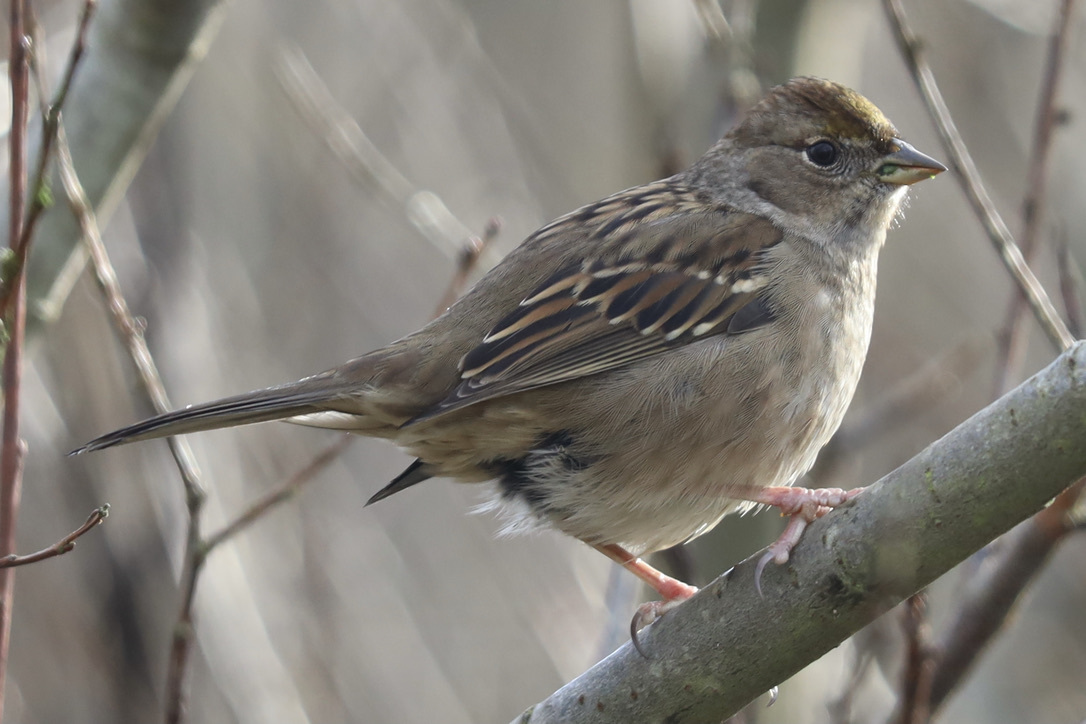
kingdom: Animalia
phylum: Chordata
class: Aves
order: Passeriformes
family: Passerellidae
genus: Zonotrichia
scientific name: Zonotrichia atricapilla
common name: Golden-crowned sparrow
